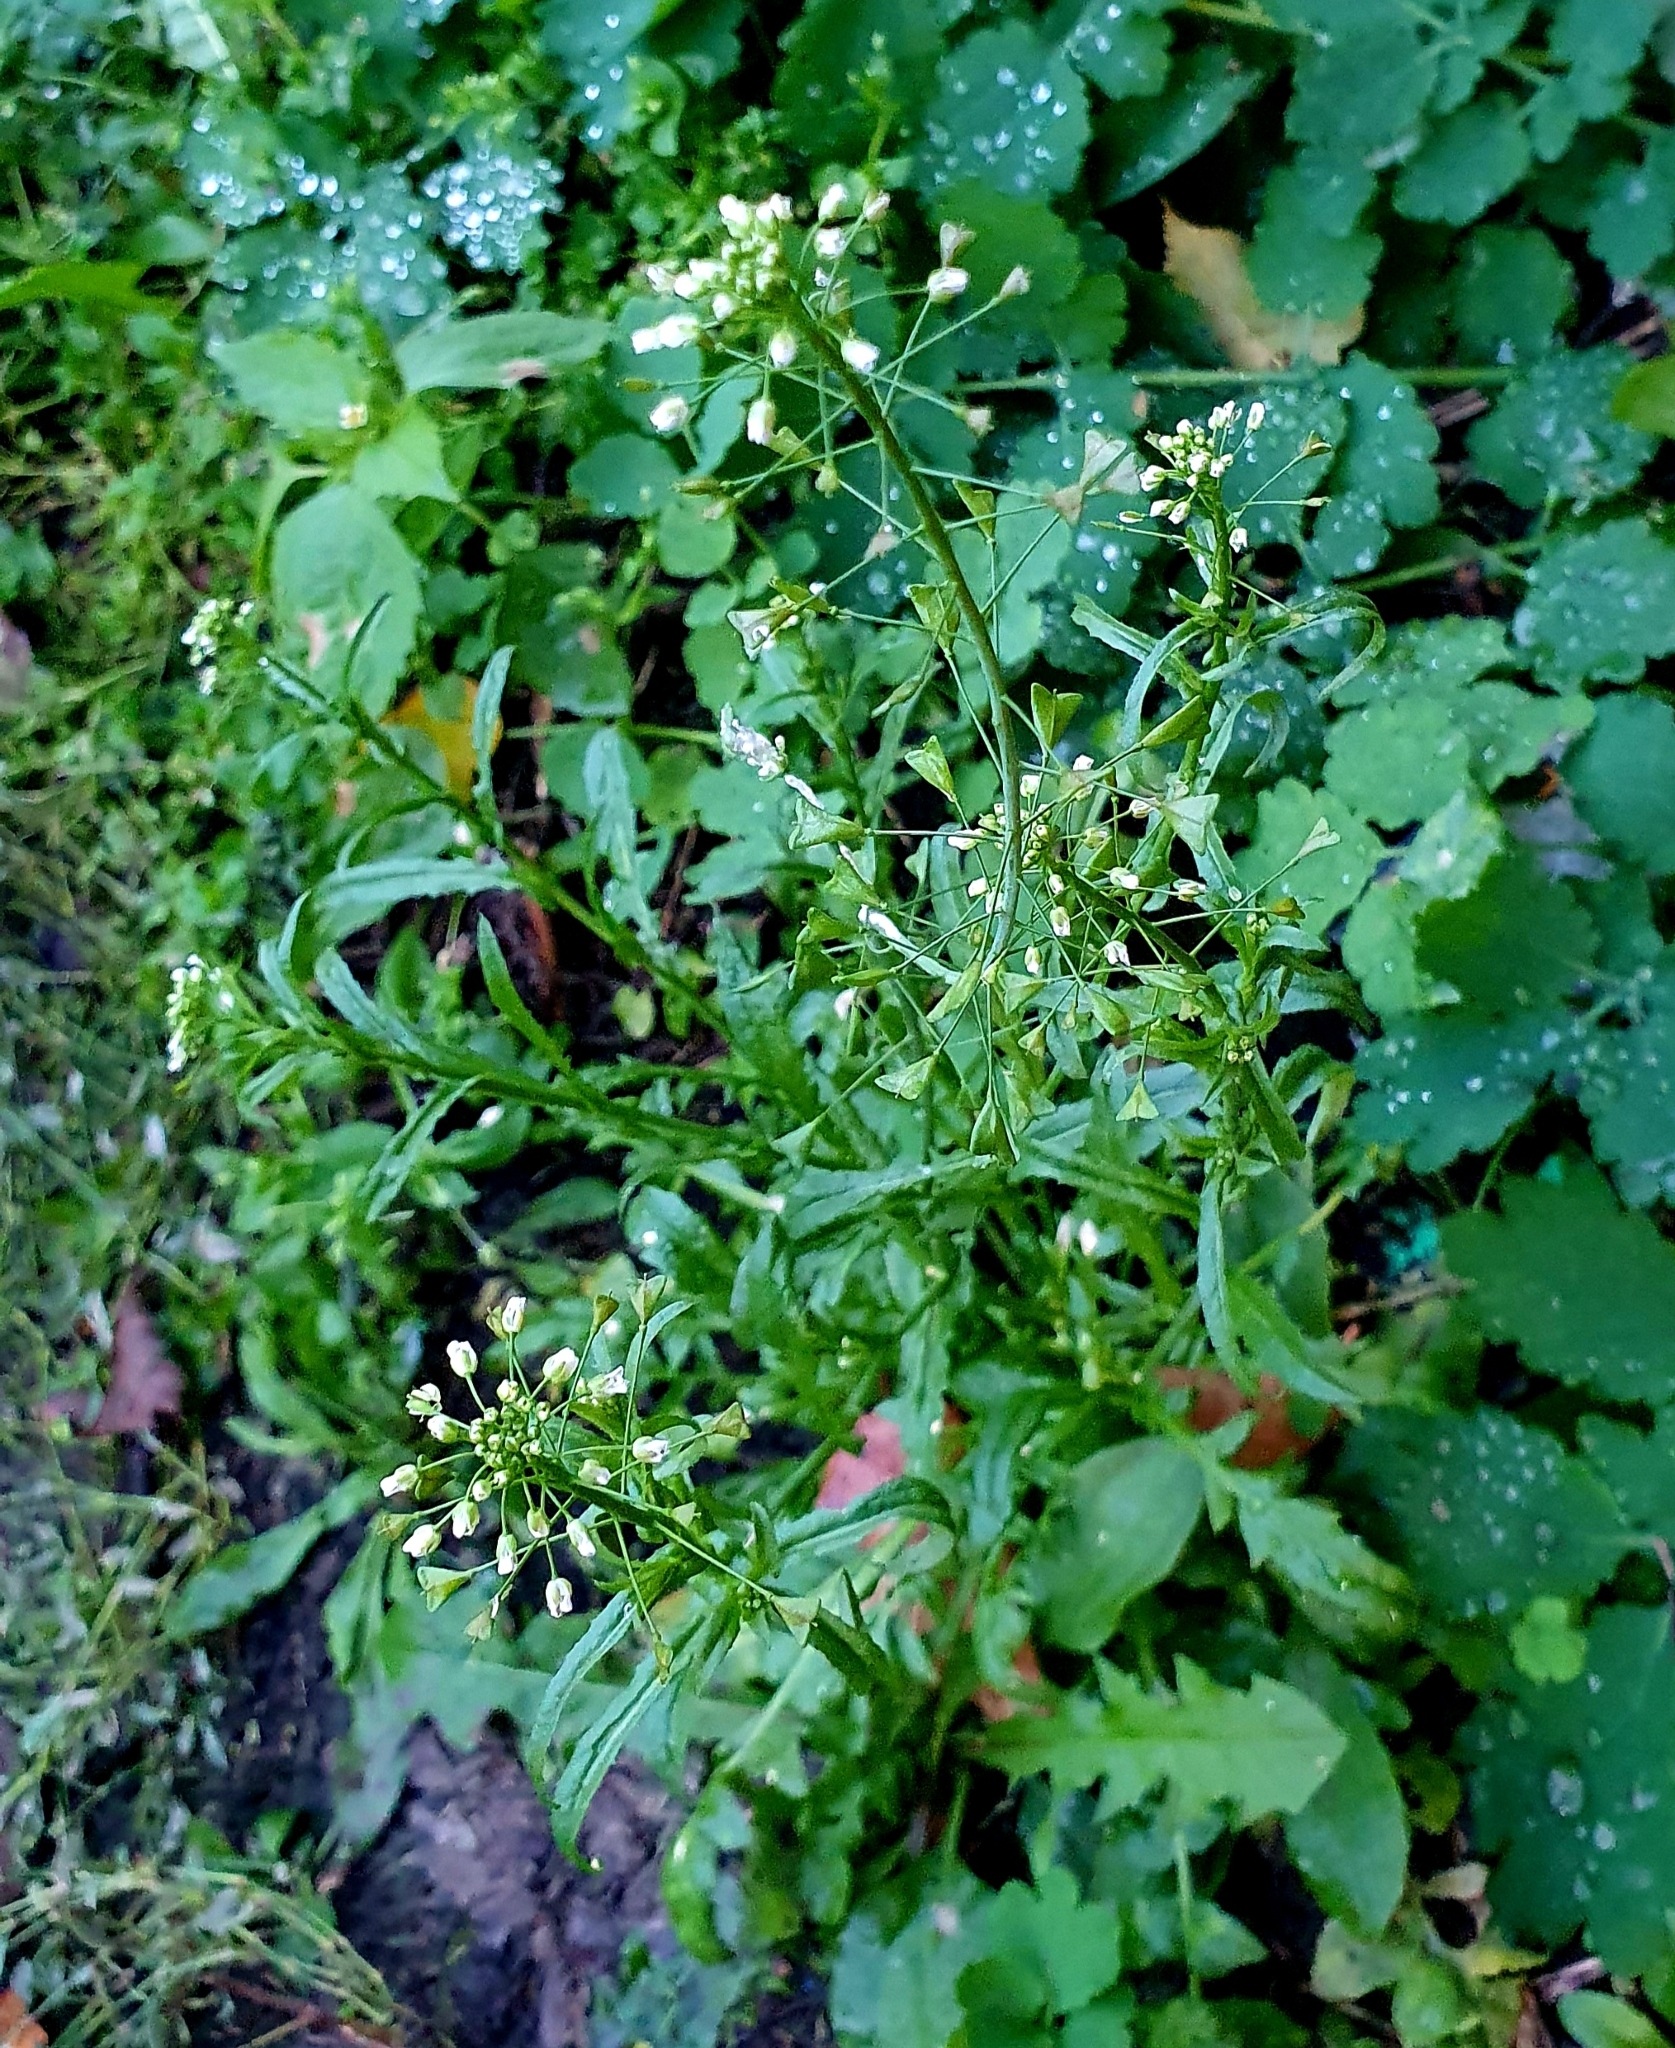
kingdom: Plantae
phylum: Tracheophyta
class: Magnoliopsida
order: Brassicales
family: Brassicaceae
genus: Capsella
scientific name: Capsella bursa-pastoris
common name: Shepherd's purse
